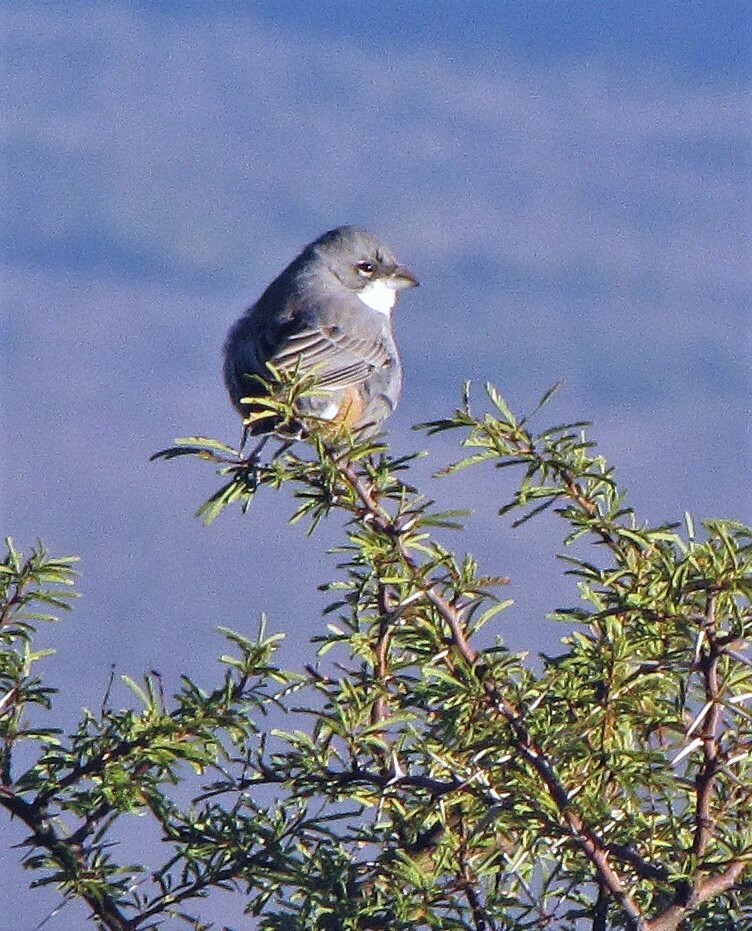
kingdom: Animalia
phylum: Chordata
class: Aves
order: Passeriformes
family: Thraupidae
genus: Diuca
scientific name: Diuca diuca
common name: Common diuca finch
